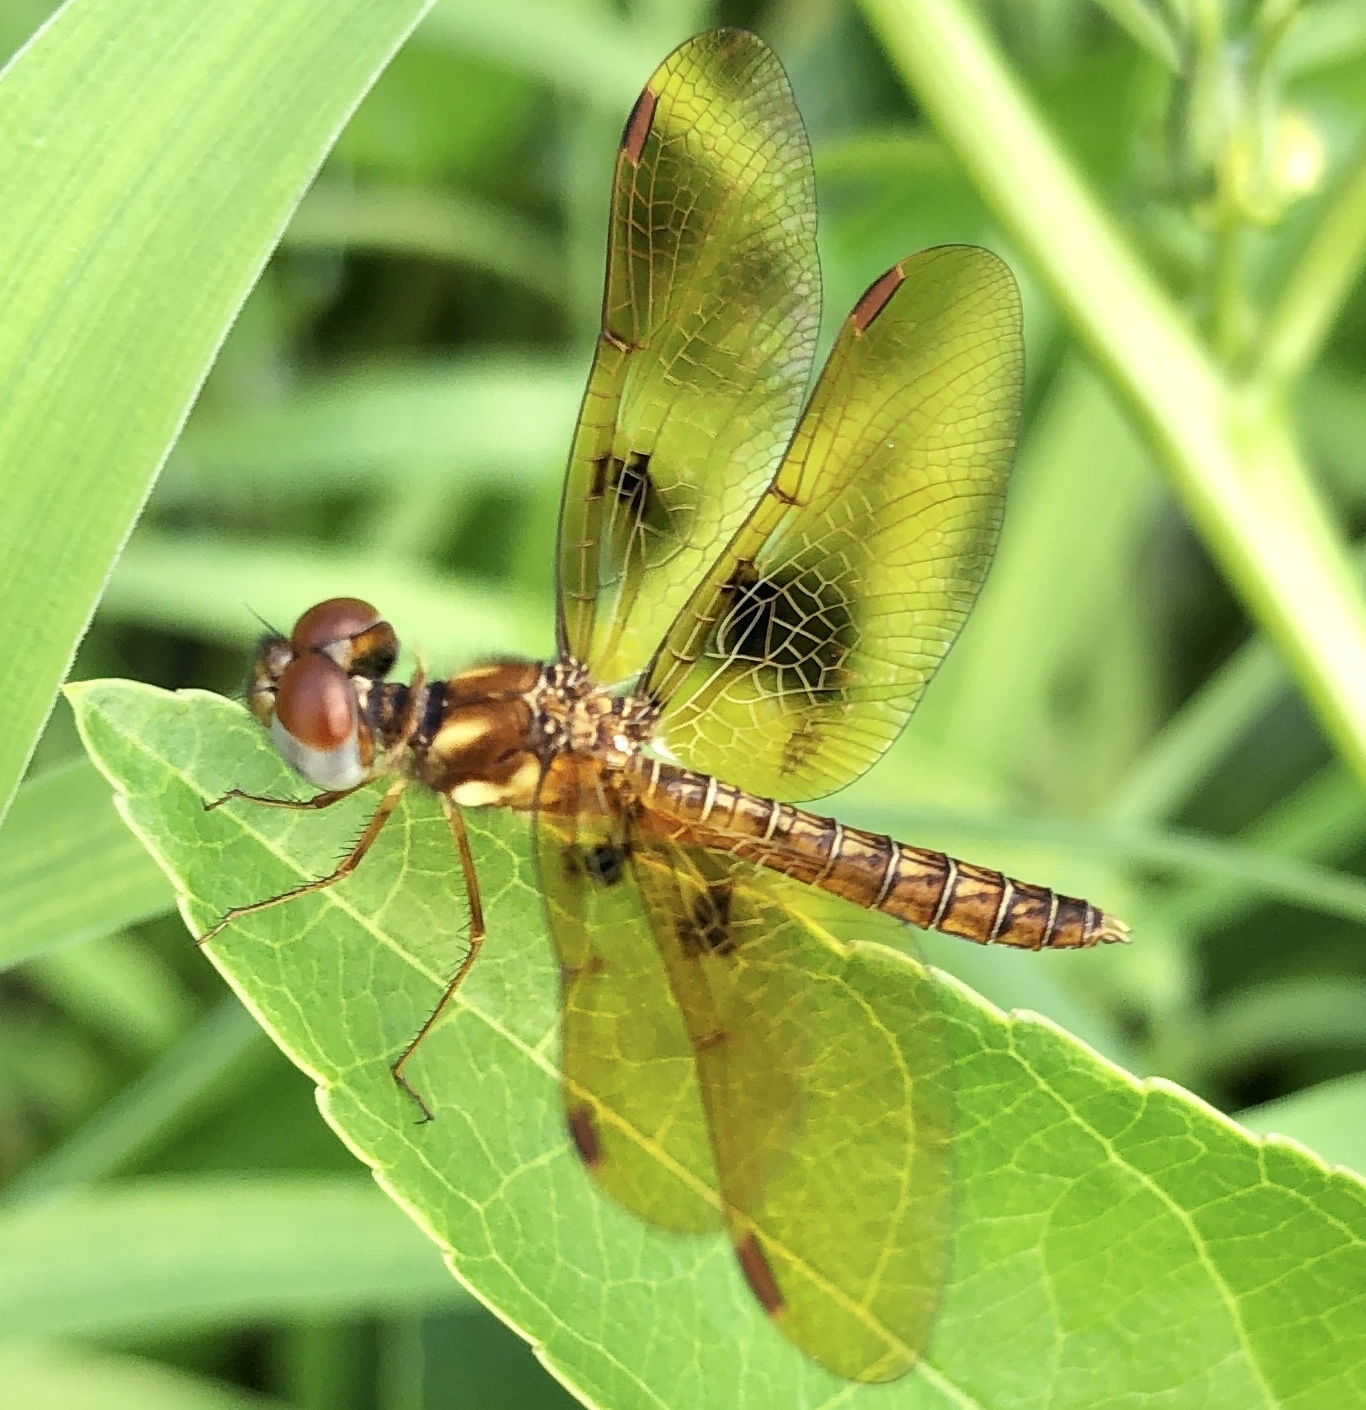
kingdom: Animalia
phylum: Arthropoda
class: Insecta
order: Odonata
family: Libellulidae
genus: Perithemis
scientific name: Perithemis tenera
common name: Eastern amberwing
